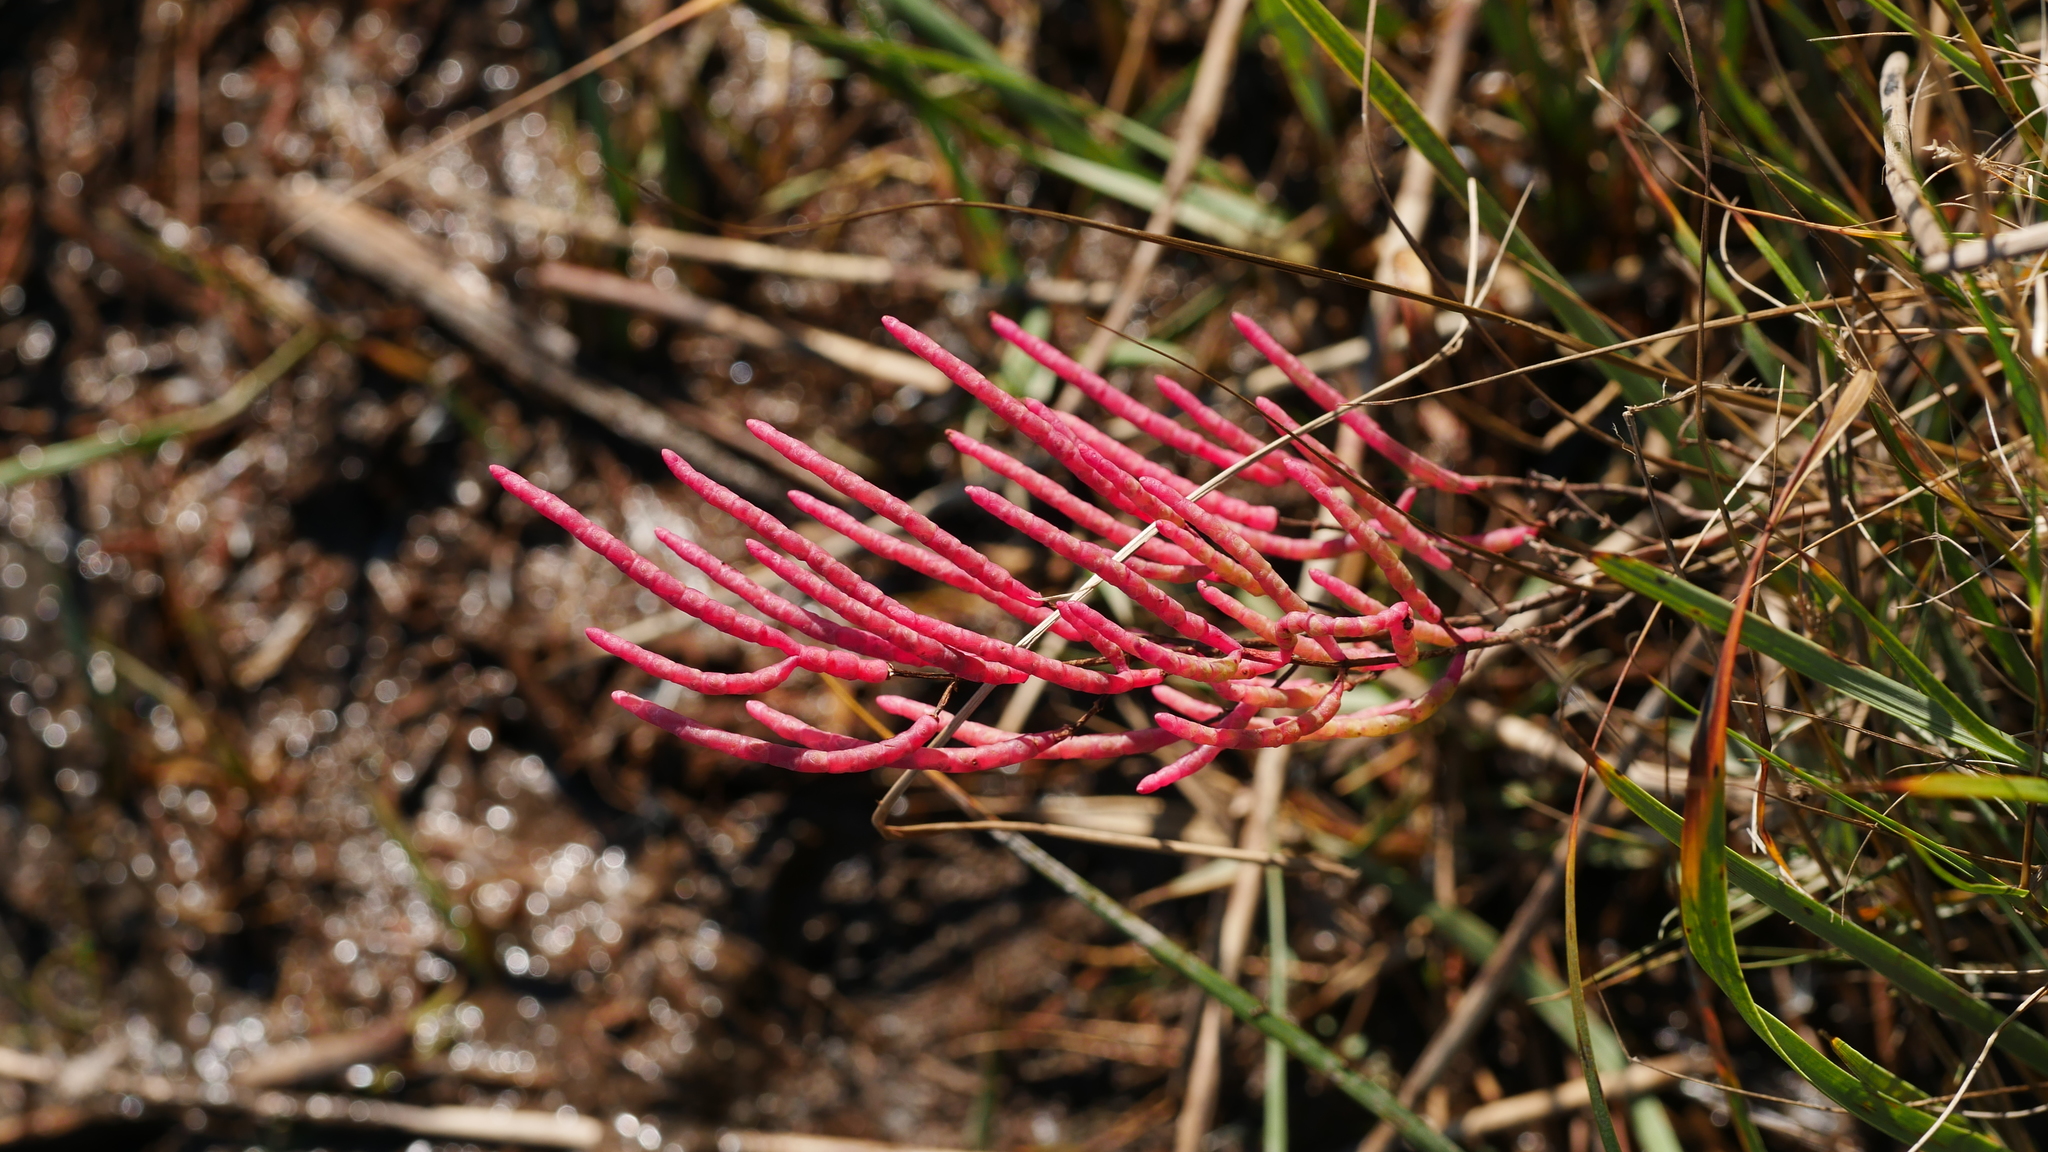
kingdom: Plantae
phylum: Tracheophyta
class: Magnoliopsida
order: Caryophyllales
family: Amaranthaceae
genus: Salicornia
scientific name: Salicornia virginica
